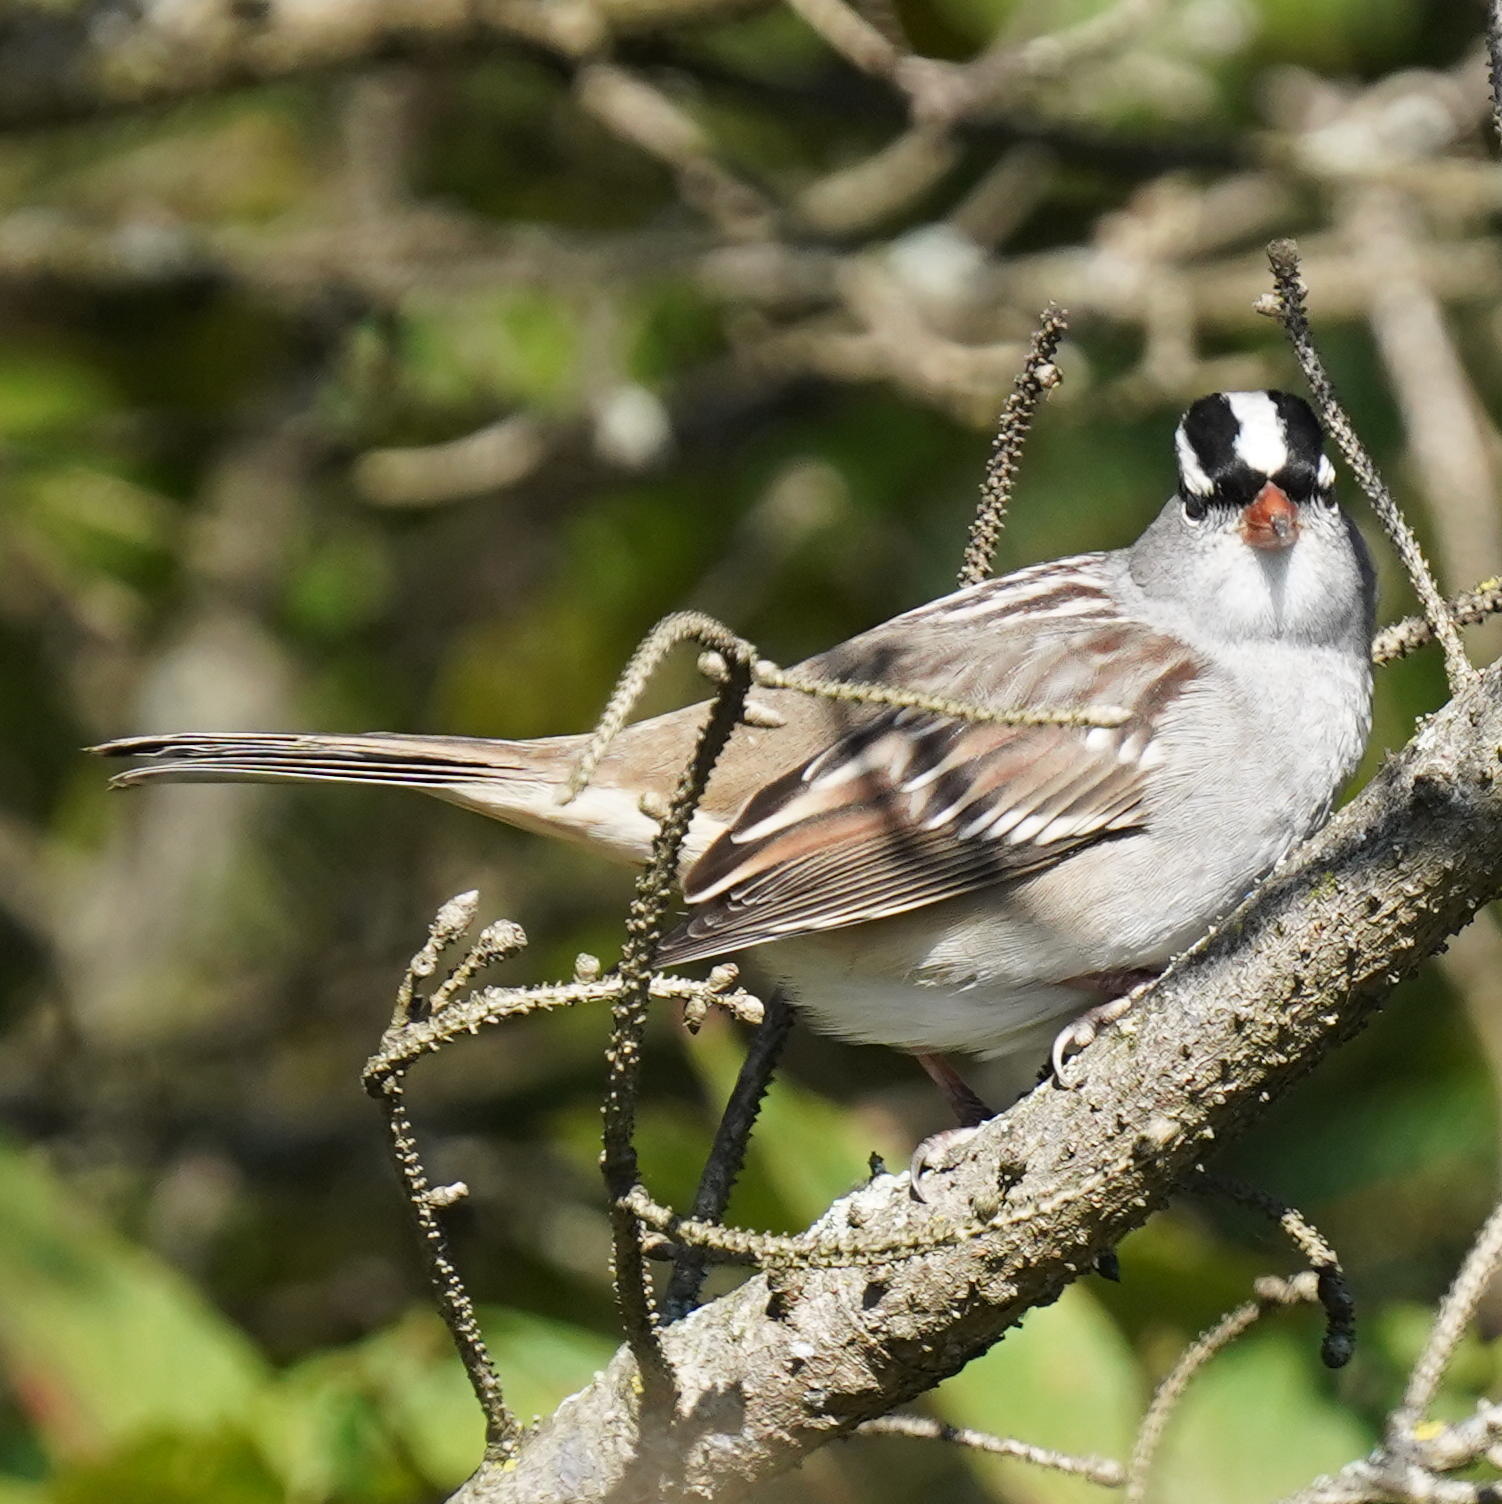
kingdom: Animalia
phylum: Chordata
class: Aves
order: Passeriformes
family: Passerellidae
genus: Zonotrichia
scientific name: Zonotrichia leucophrys
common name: White-crowned sparrow
